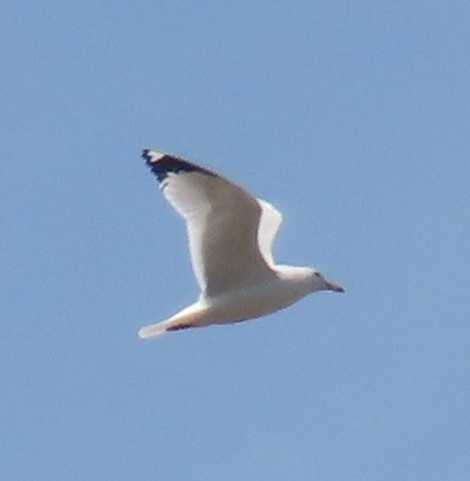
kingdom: Animalia
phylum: Chordata
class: Aves
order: Charadriiformes
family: Laridae
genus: Larus
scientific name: Larus delawarensis
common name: Ring-billed gull
